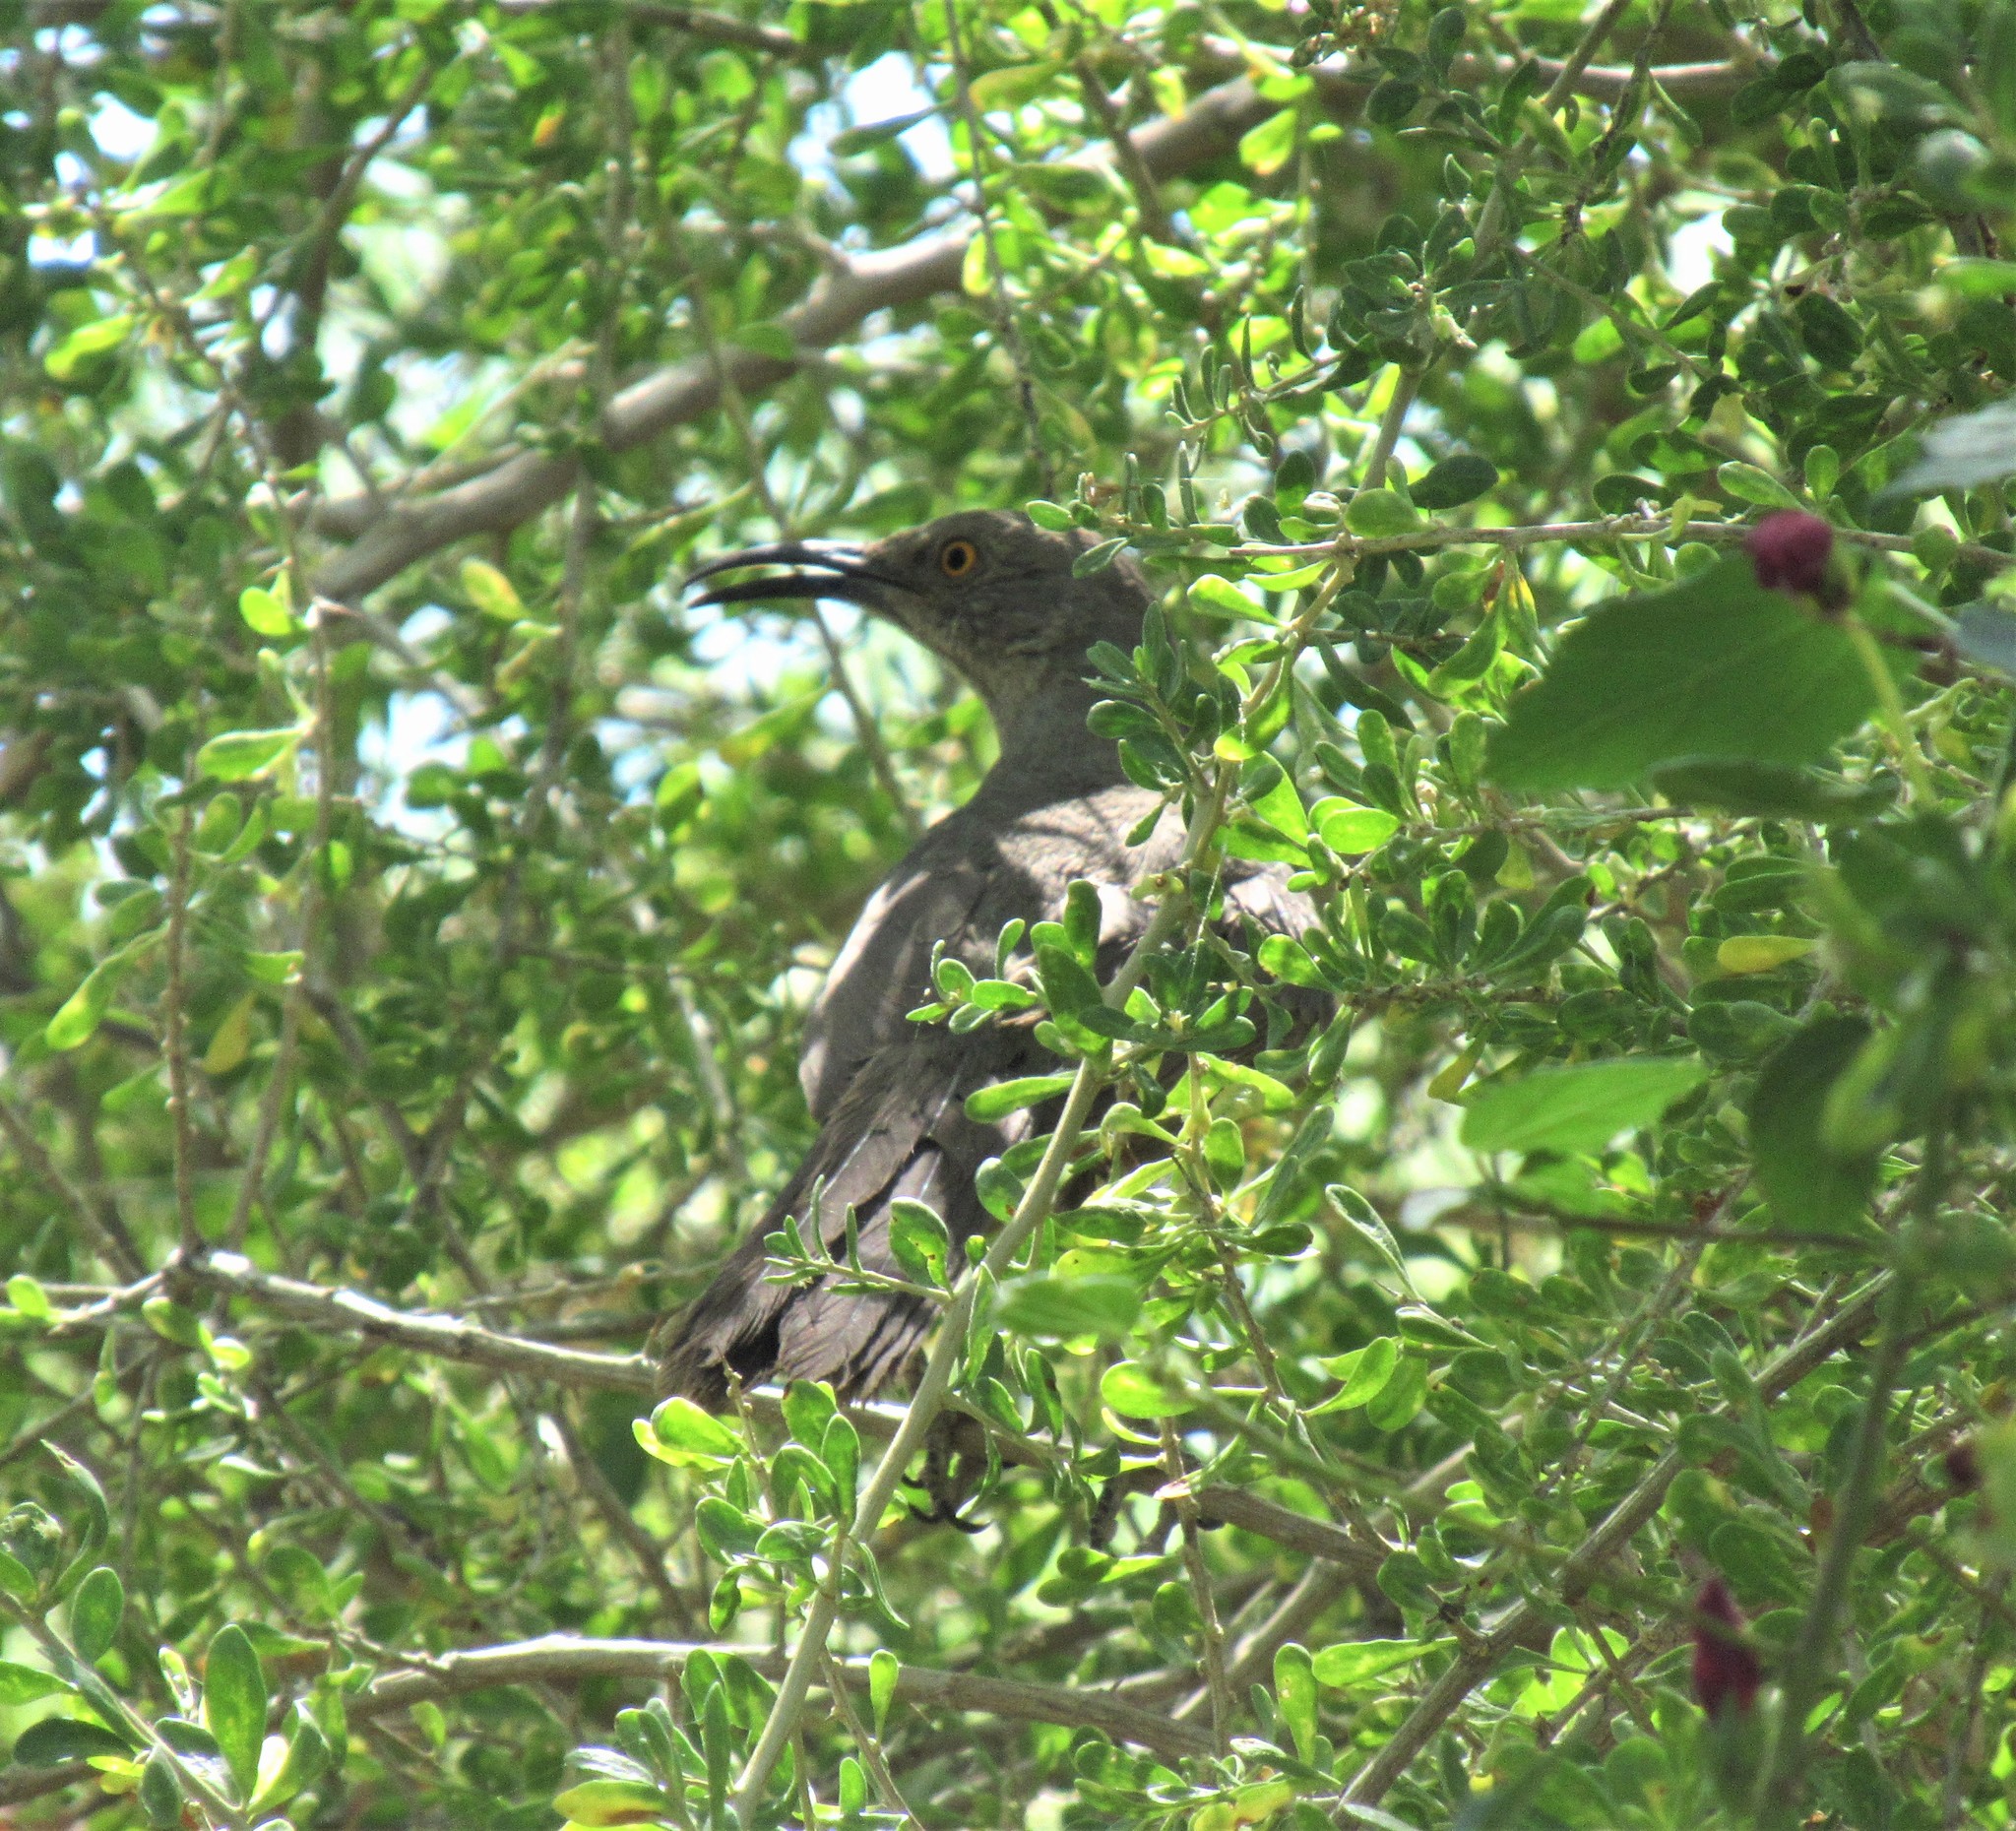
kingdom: Animalia
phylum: Chordata
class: Aves
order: Passeriformes
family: Mimidae
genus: Toxostoma
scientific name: Toxostoma curvirostre
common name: Curve-billed thrasher
